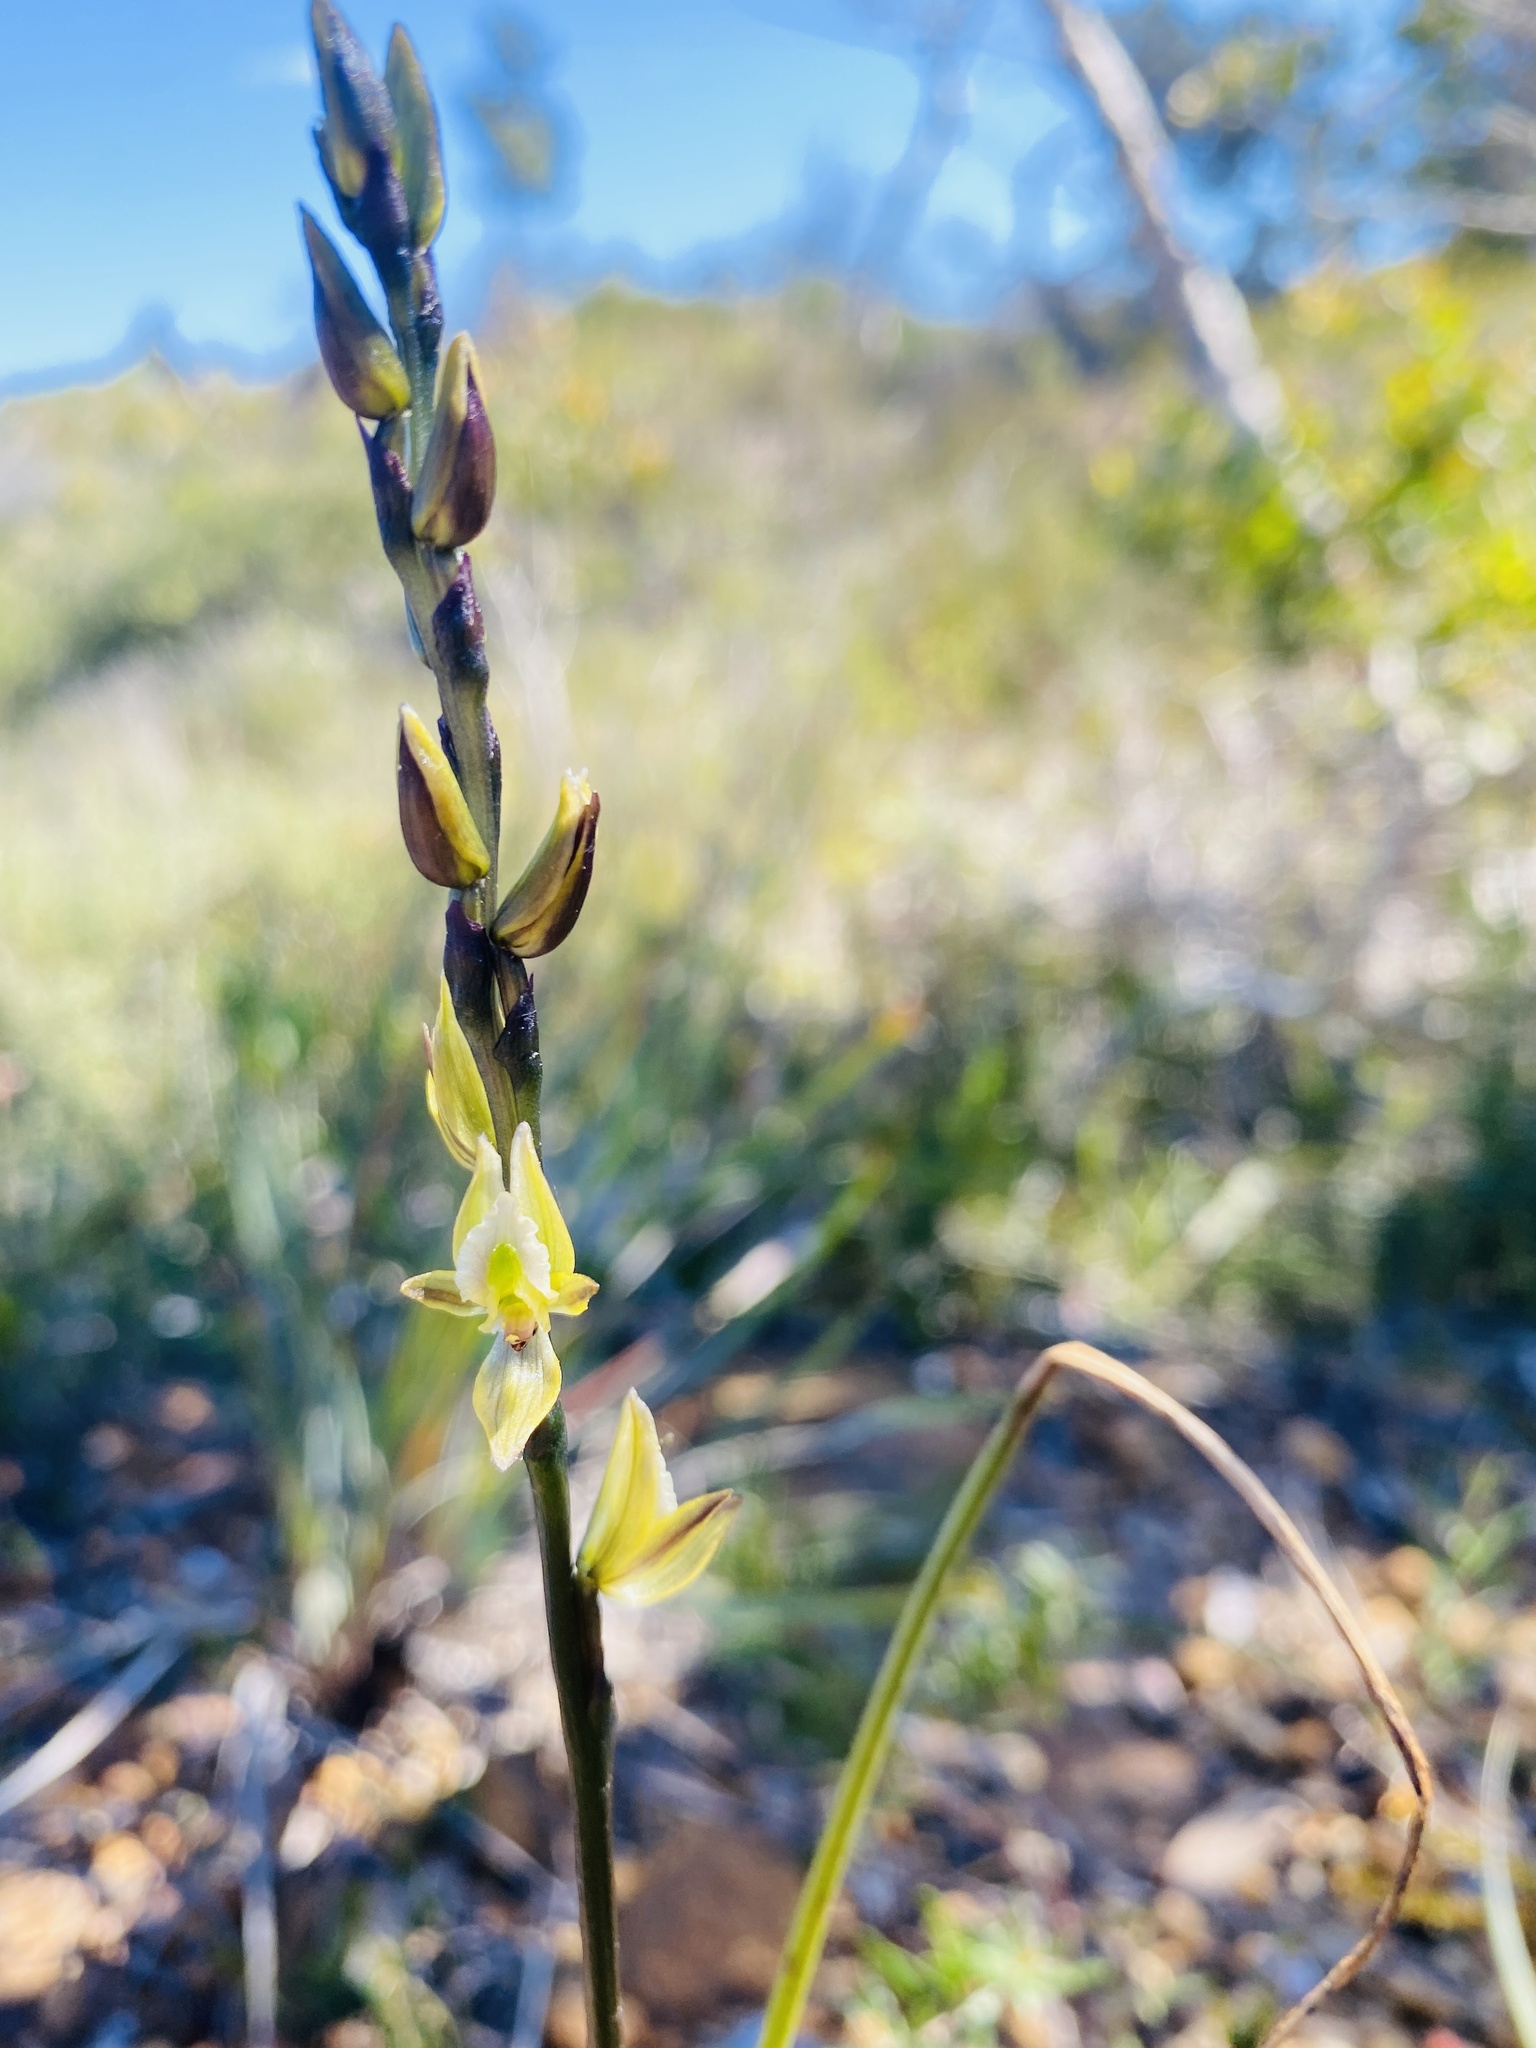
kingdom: Plantae
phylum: Tracheophyta
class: Liliopsida
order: Asparagales
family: Orchidaceae
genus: Prasophyllum
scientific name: Prasophyllum elatum
